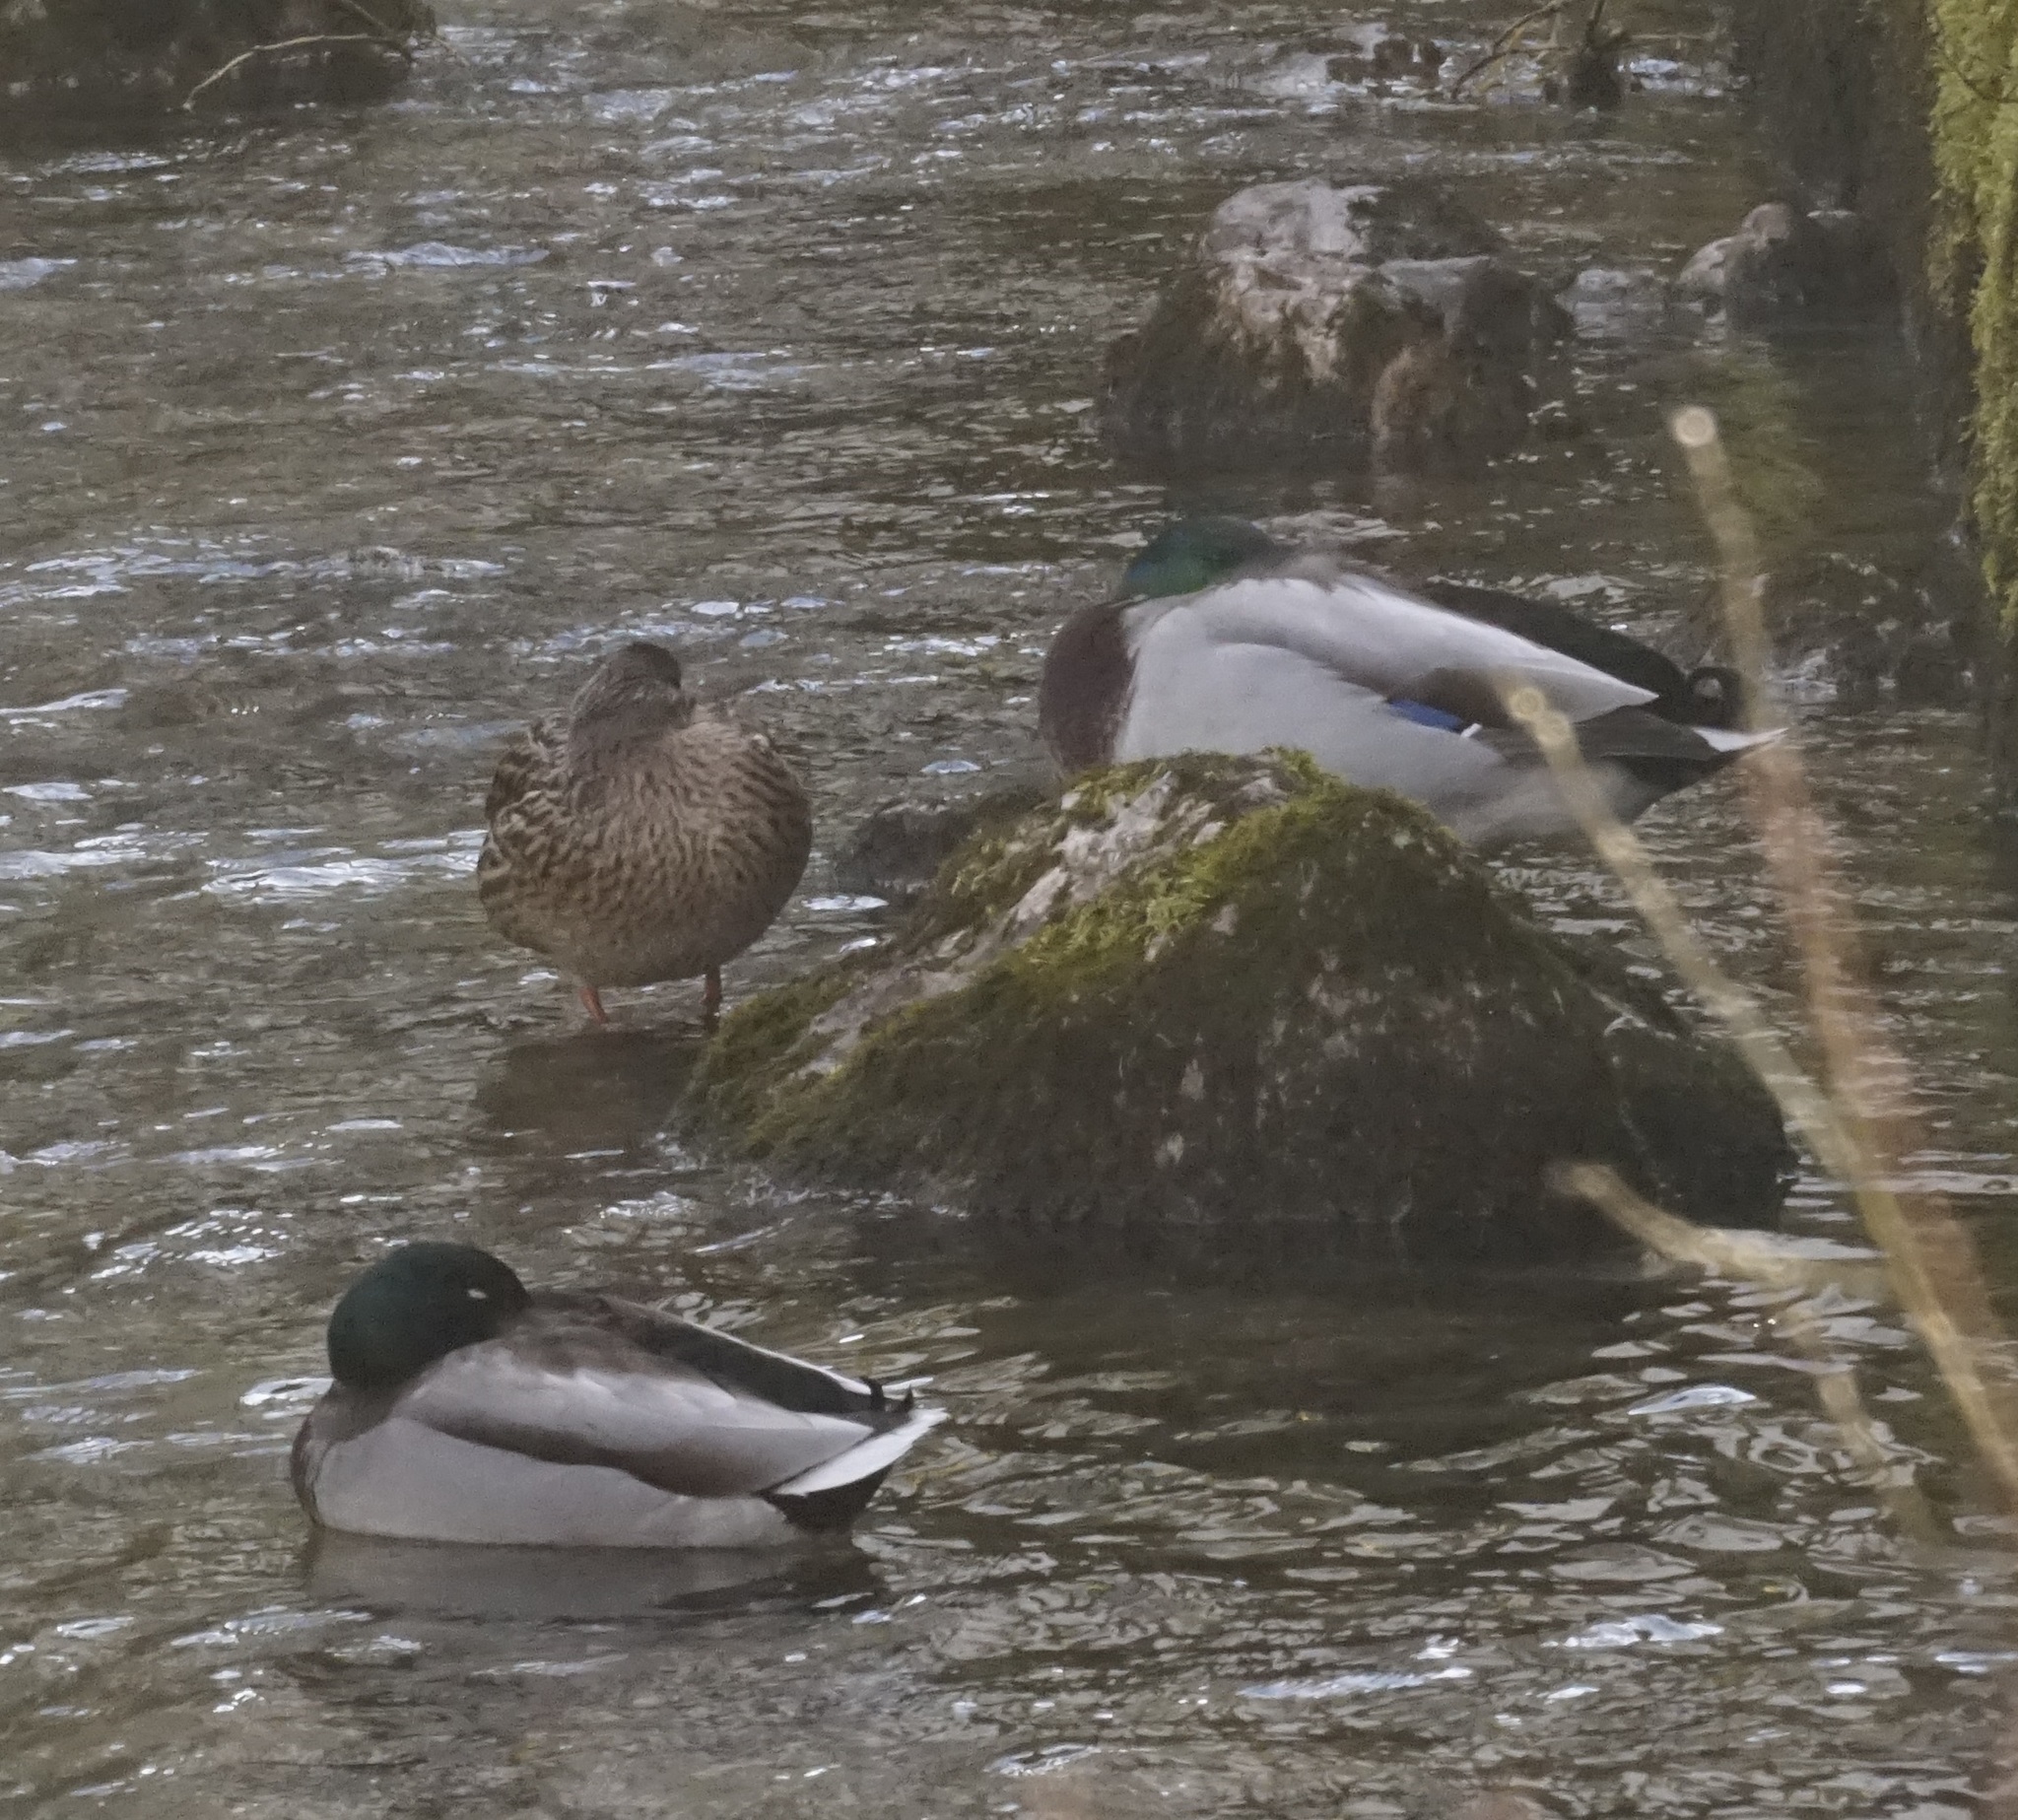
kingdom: Animalia
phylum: Chordata
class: Aves
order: Anseriformes
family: Anatidae
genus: Anas
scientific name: Anas platyrhynchos
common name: Mallard
